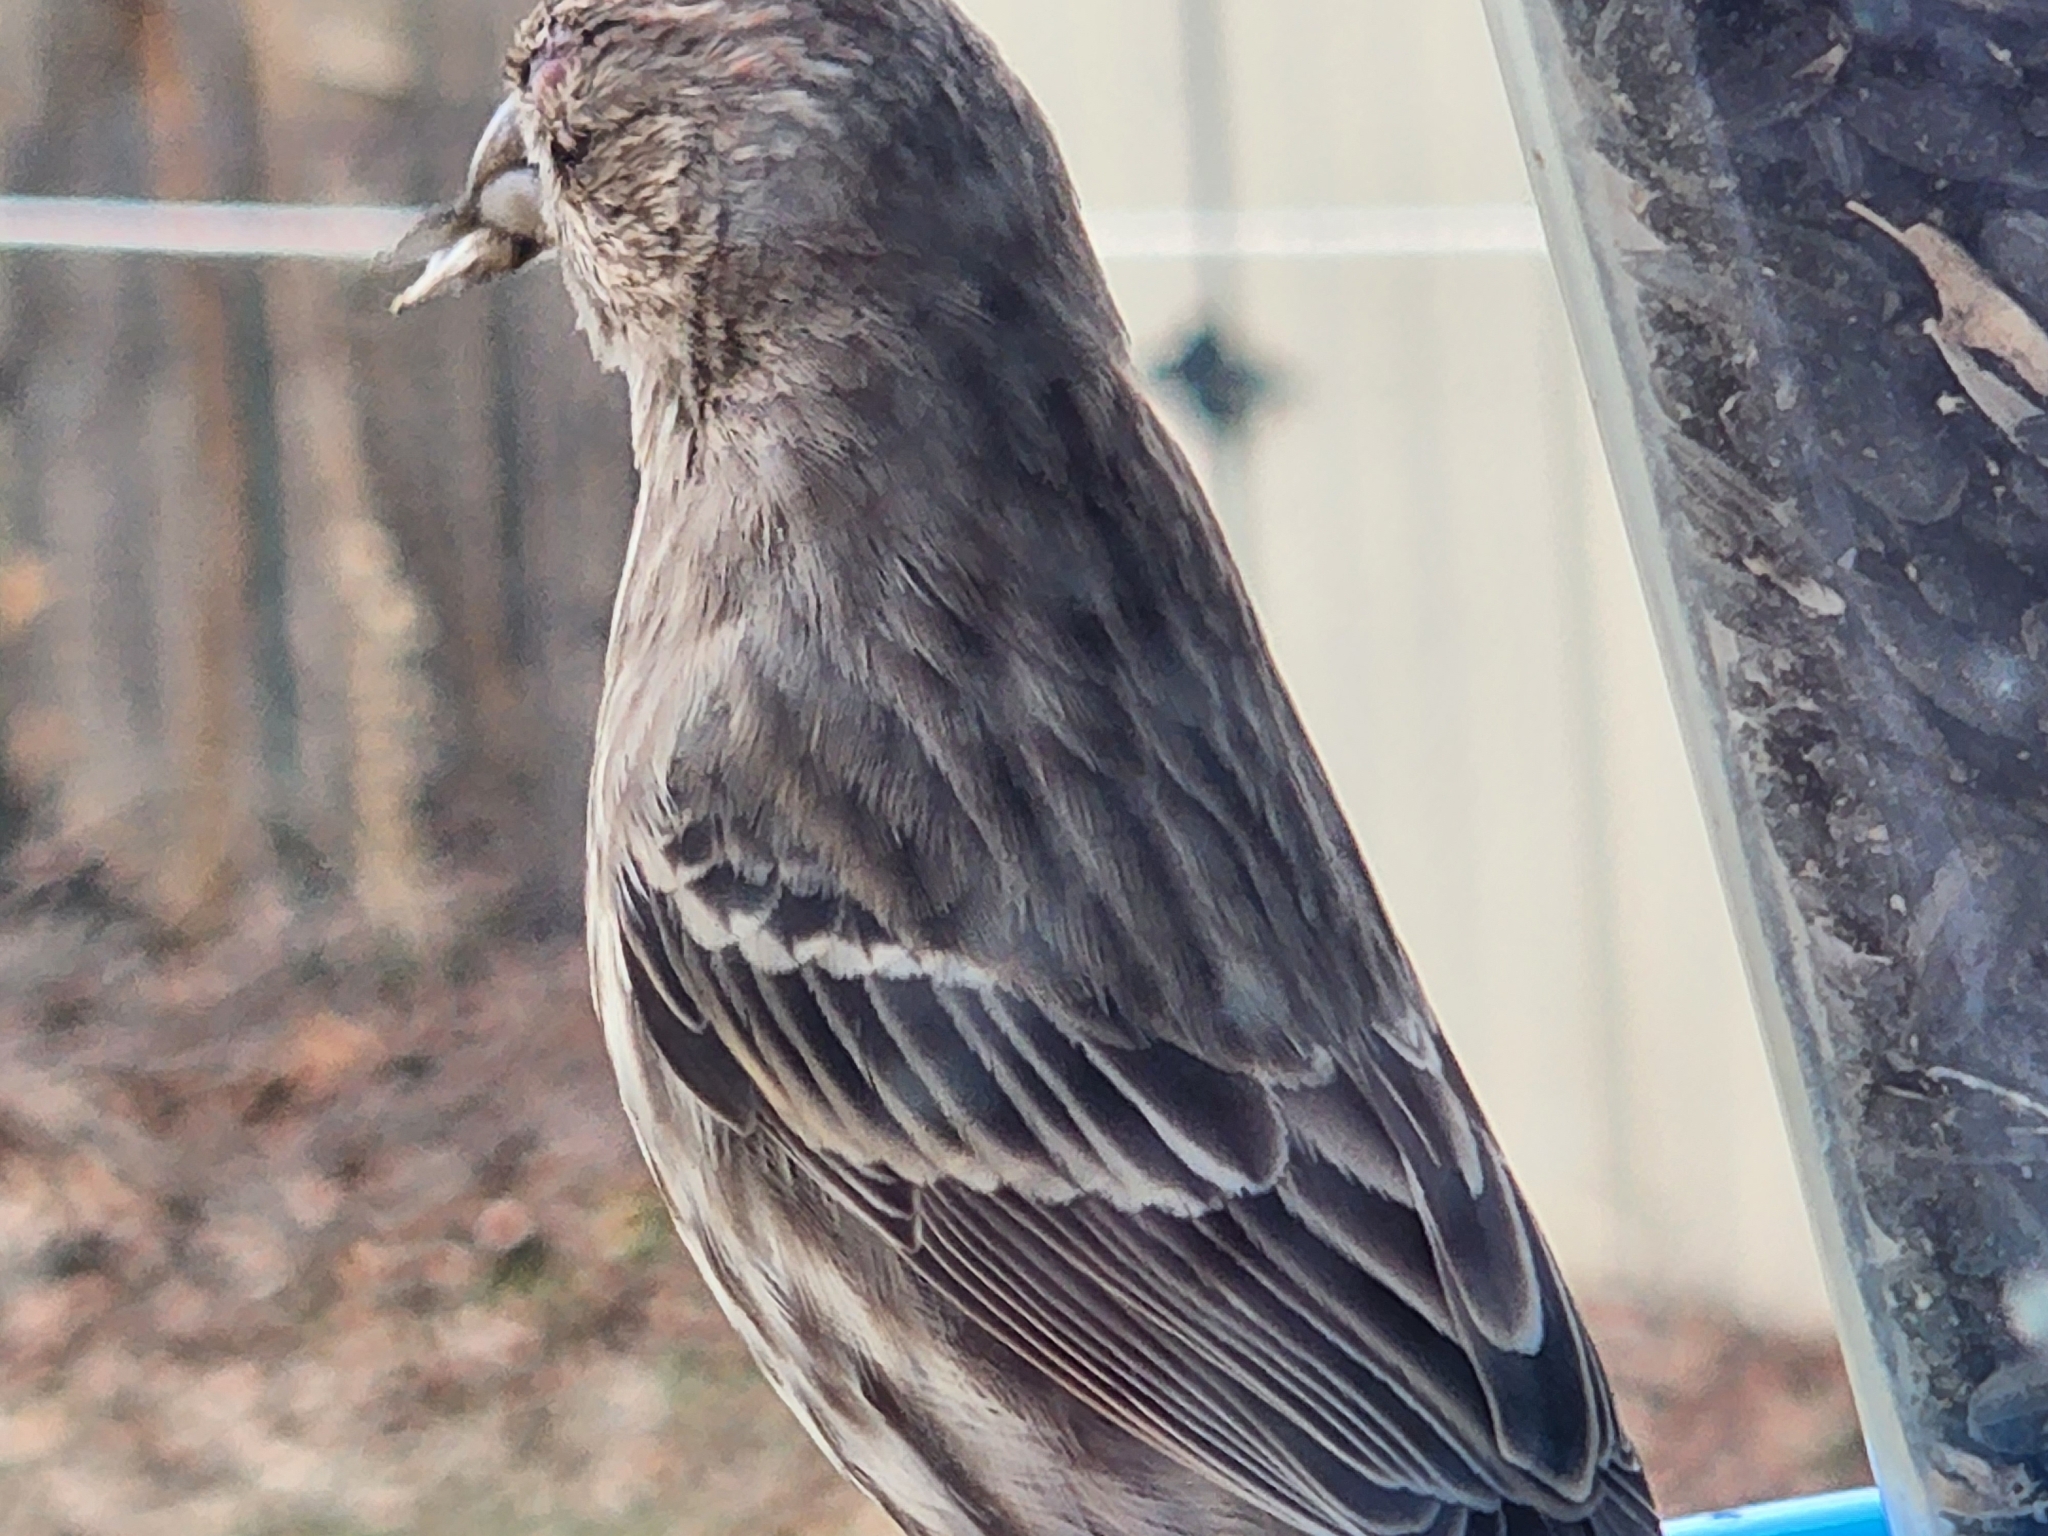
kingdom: Bacteria
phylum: Firmicutes
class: Bacilli
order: Mycoplasmatales
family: Mycoplasmataceae
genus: Mycoplasma
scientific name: Mycoplasma gallisepticum
